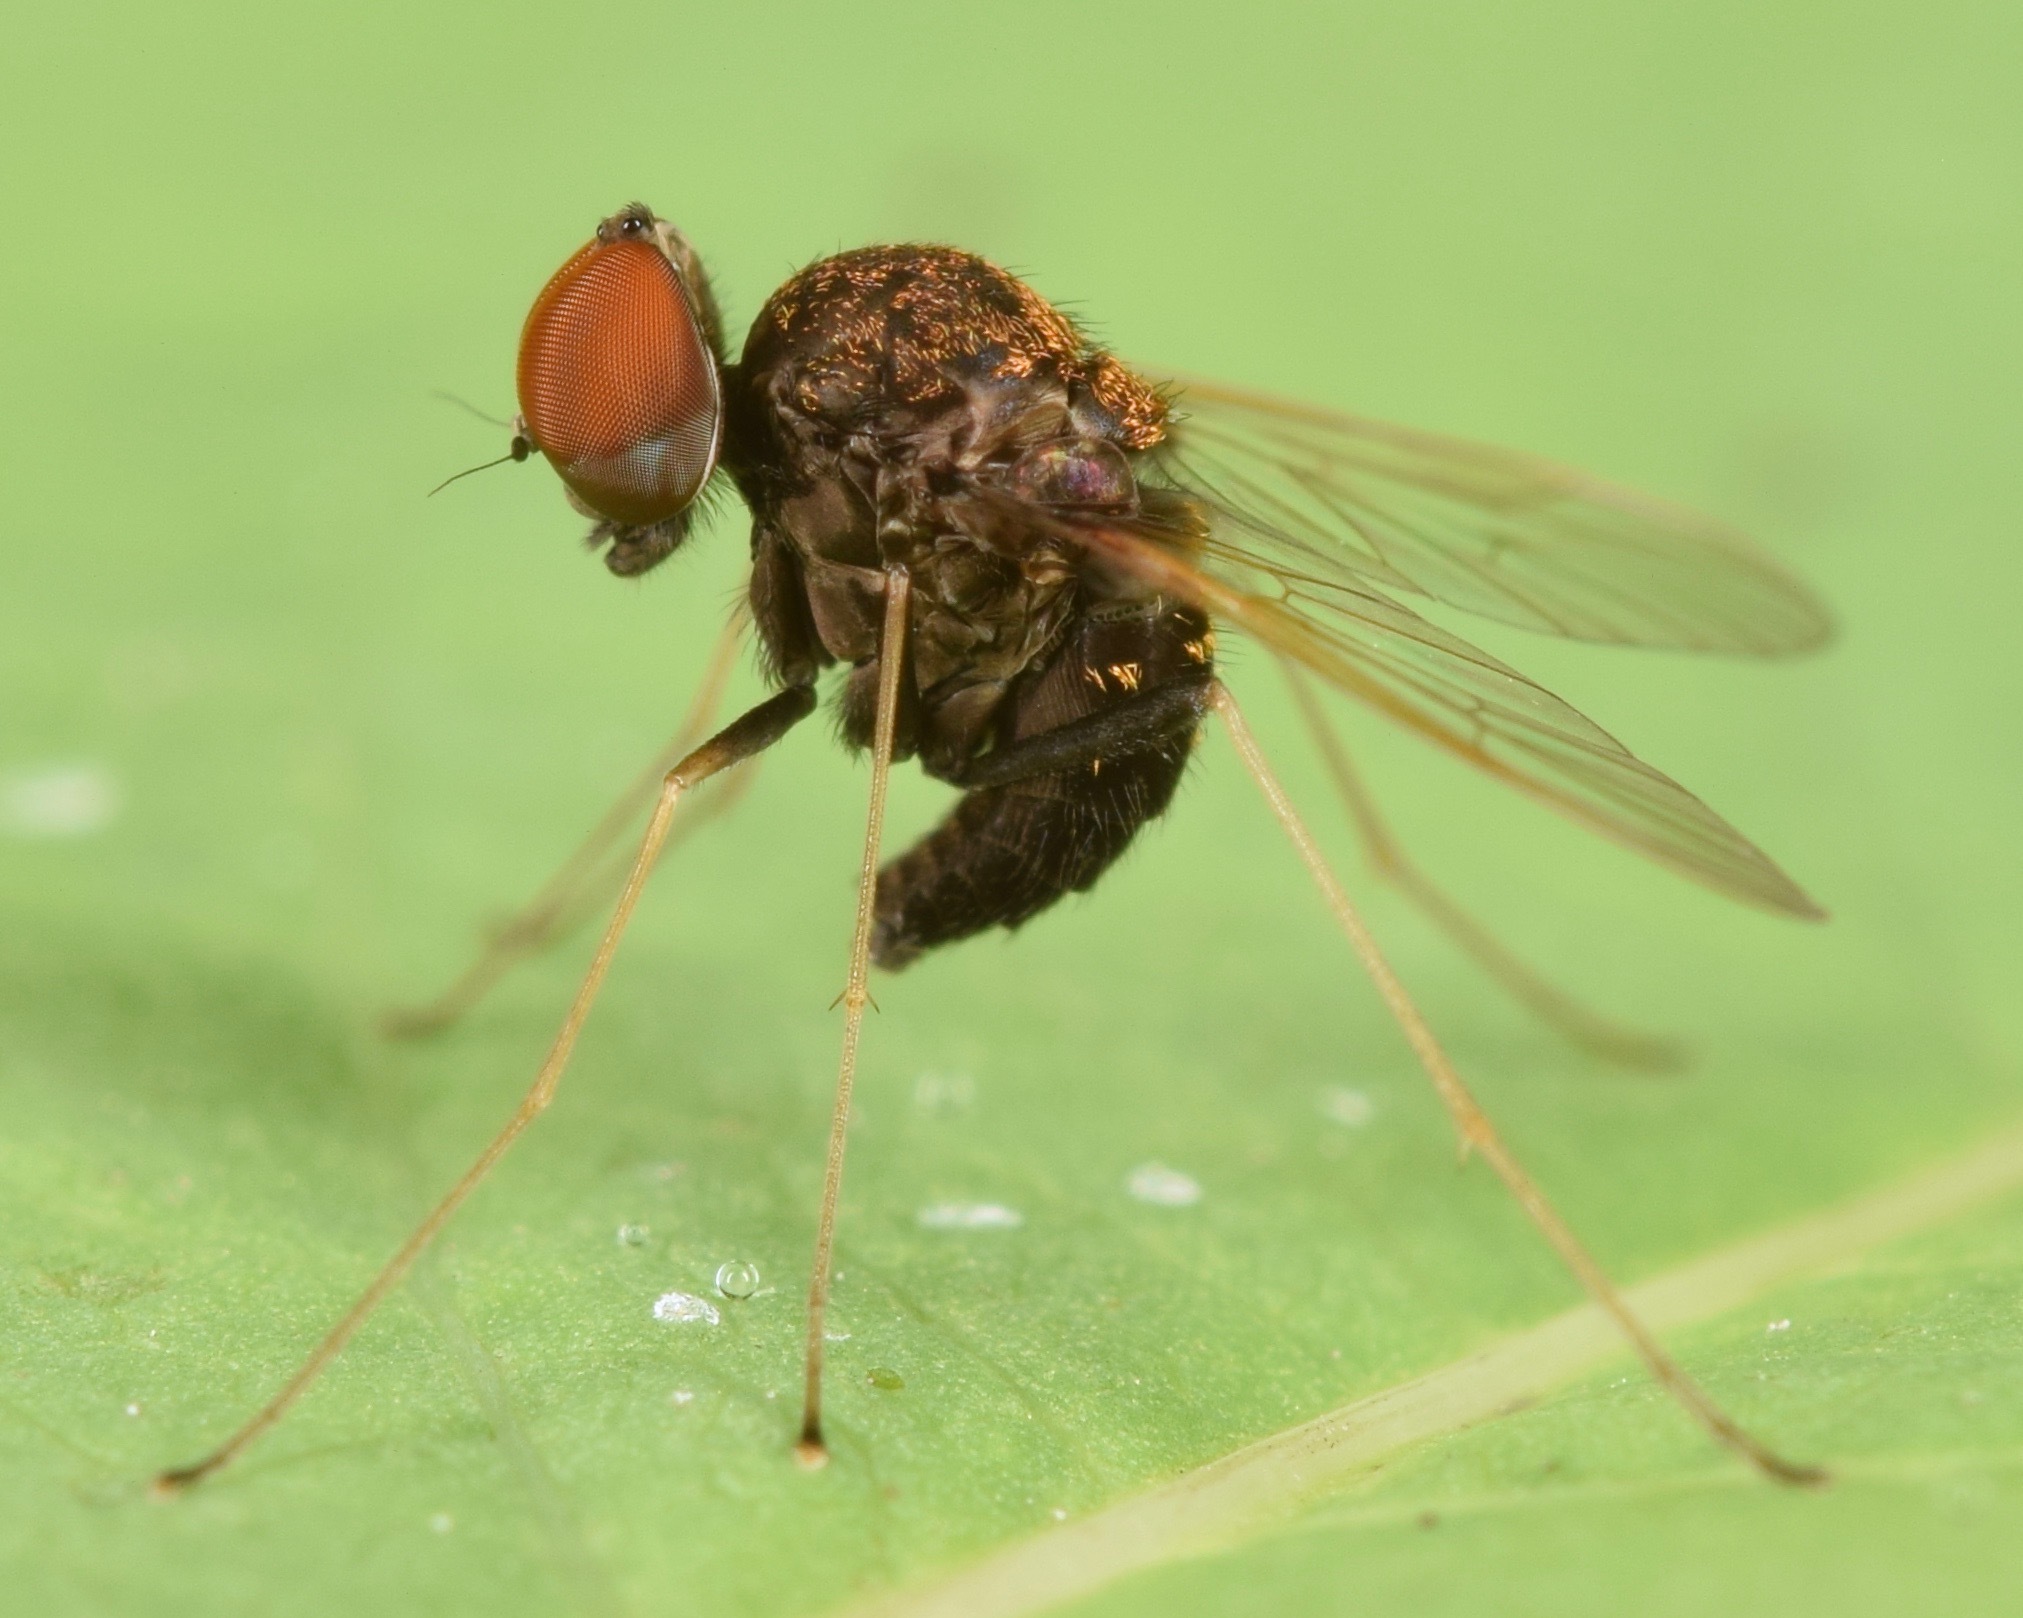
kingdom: Animalia
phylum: Arthropoda
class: Insecta
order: Diptera
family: Rhagionidae
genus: Chrysopilus
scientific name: Chrysopilus basilaris
